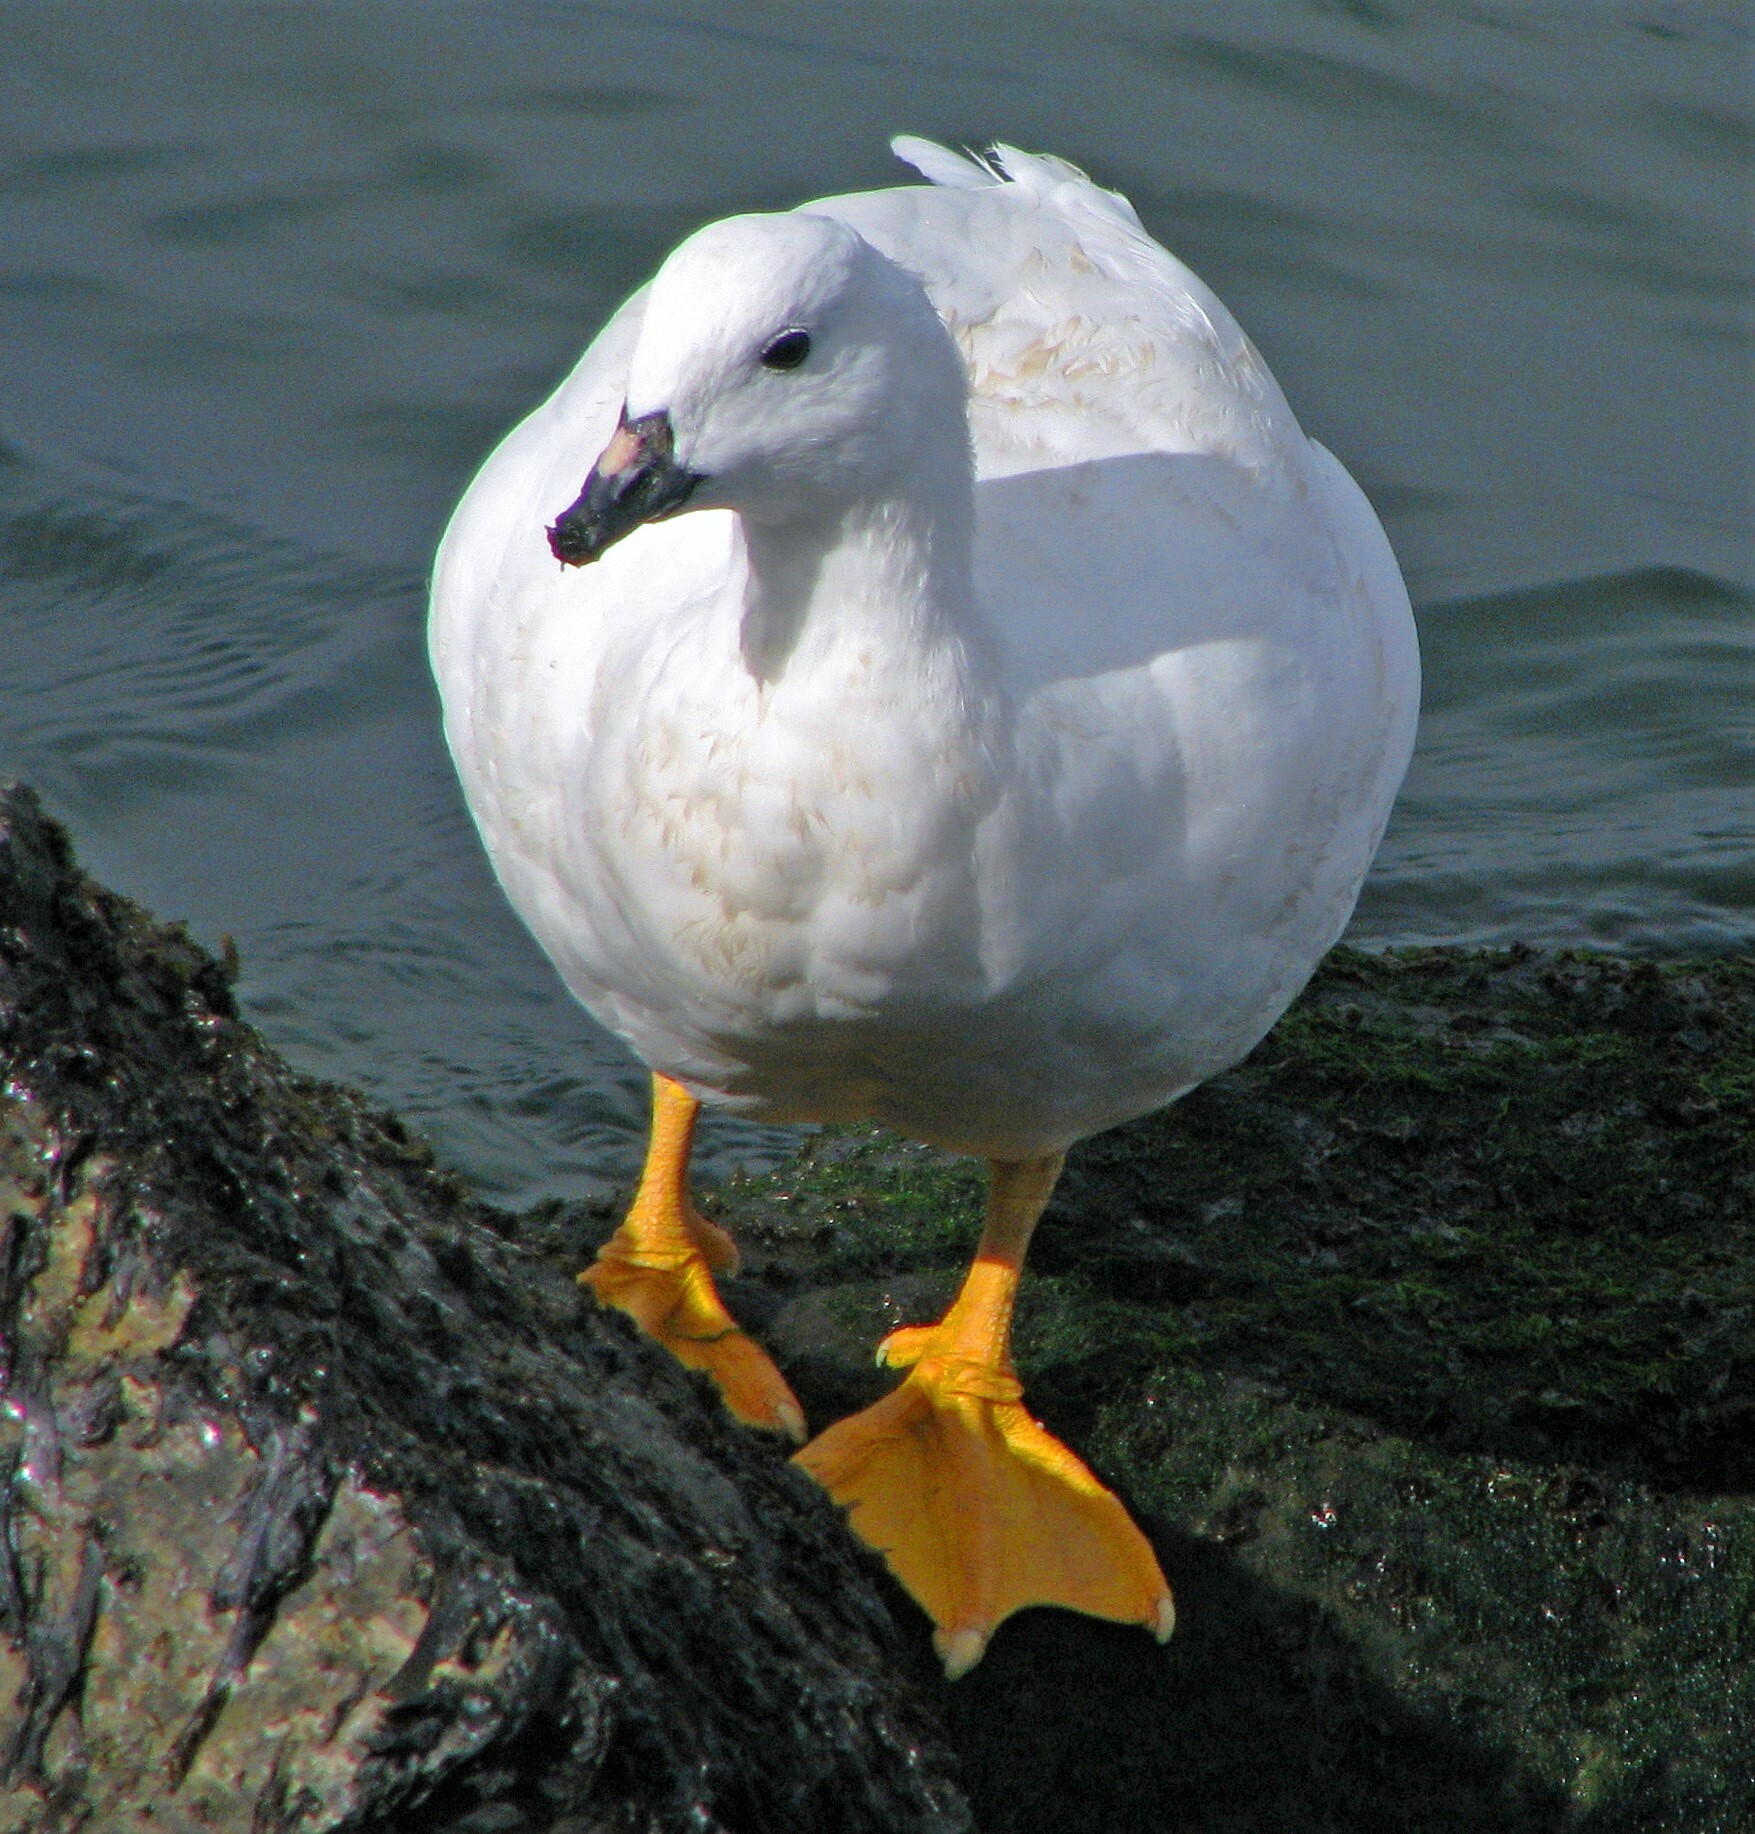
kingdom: Animalia
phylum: Chordata
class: Aves
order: Anseriformes
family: Anatidae
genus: Chloephaga
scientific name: Chloephaga hybrida
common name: Kelp goose
